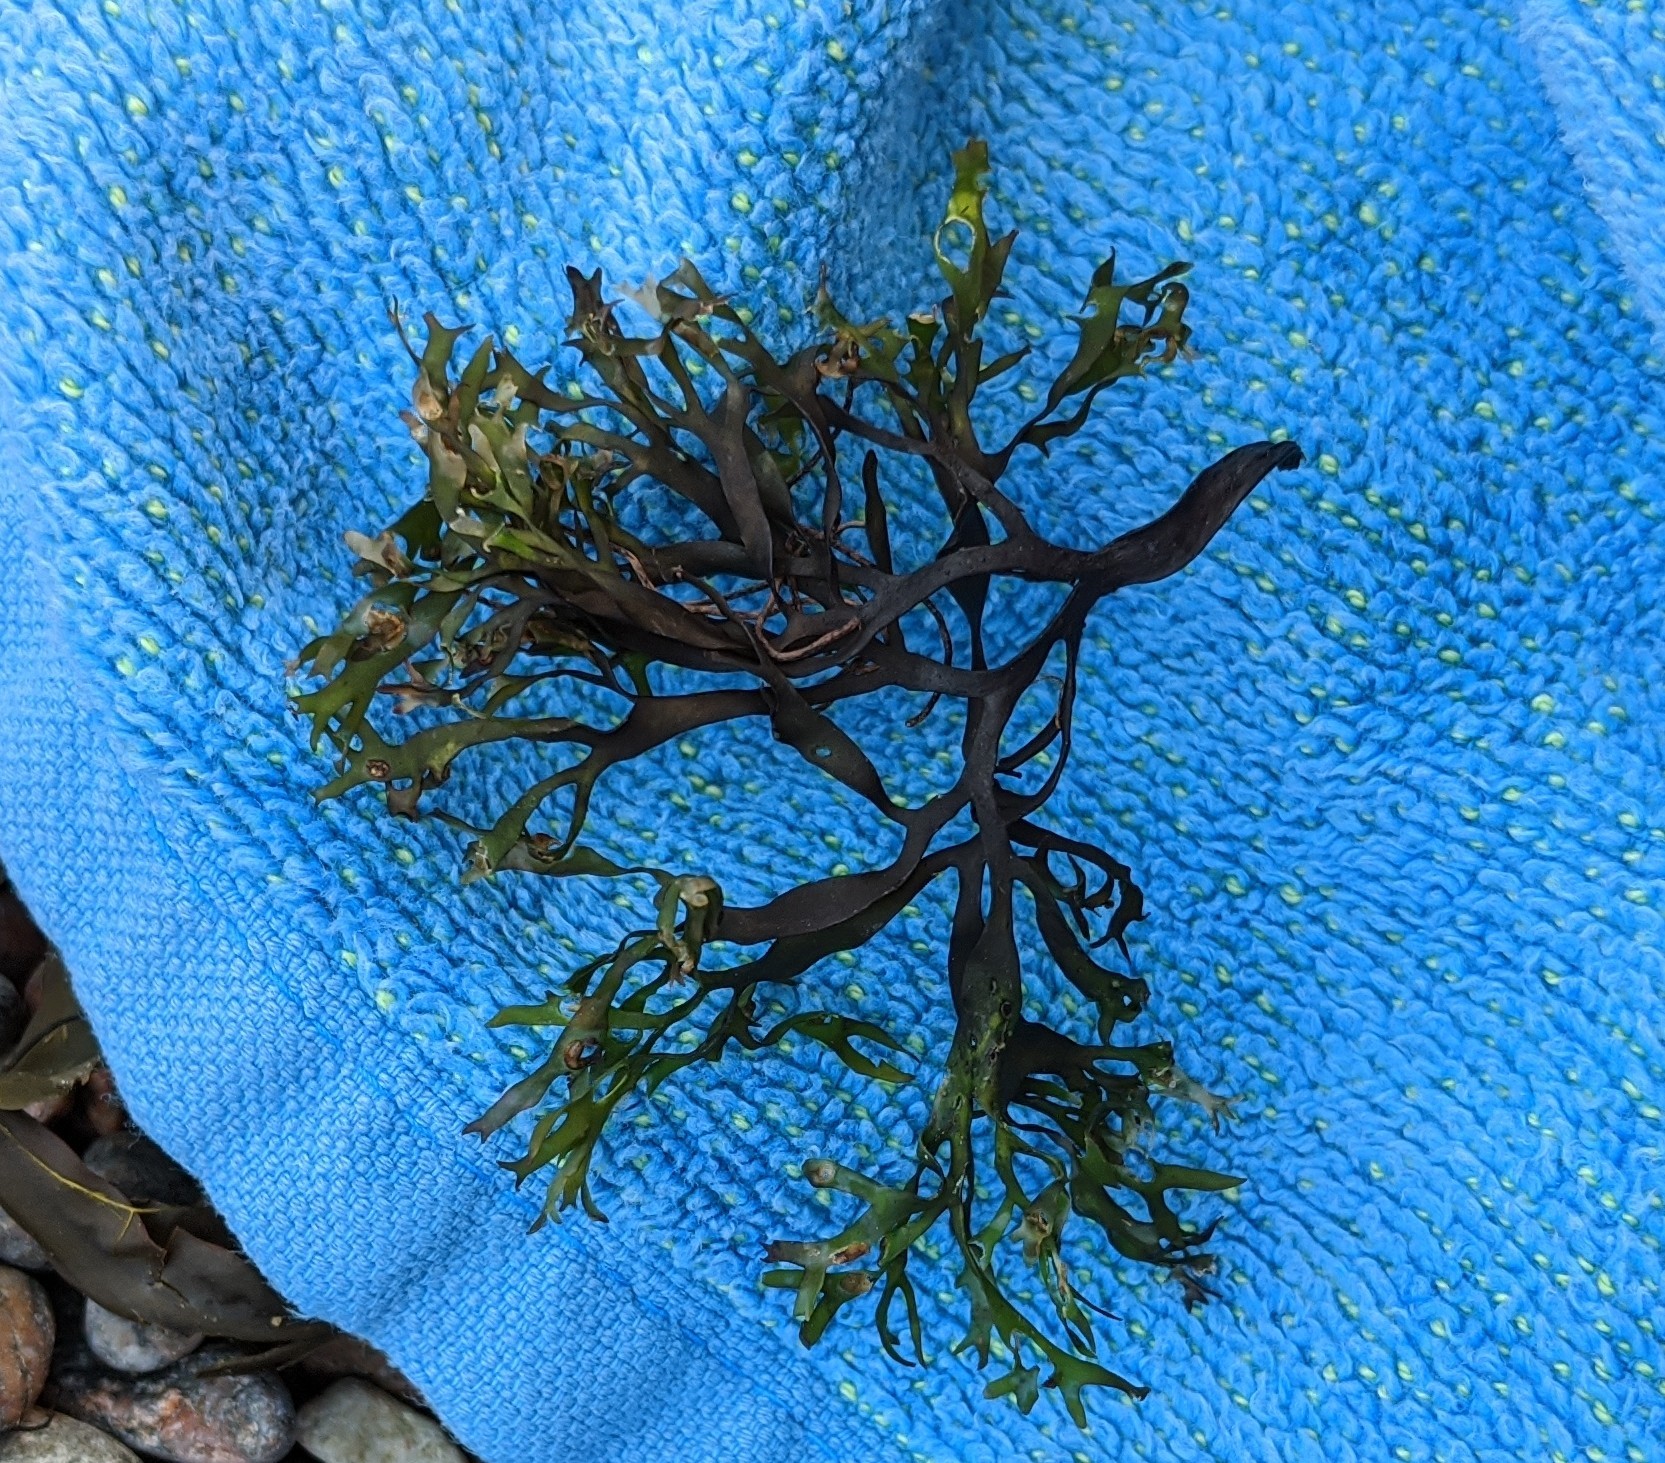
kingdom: Plantae
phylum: Rhodophyta
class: Florideophyceae
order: Gigartinales
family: Gigartinaceae
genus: Chondrus
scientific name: Chondrus crispus
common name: Carrageen
